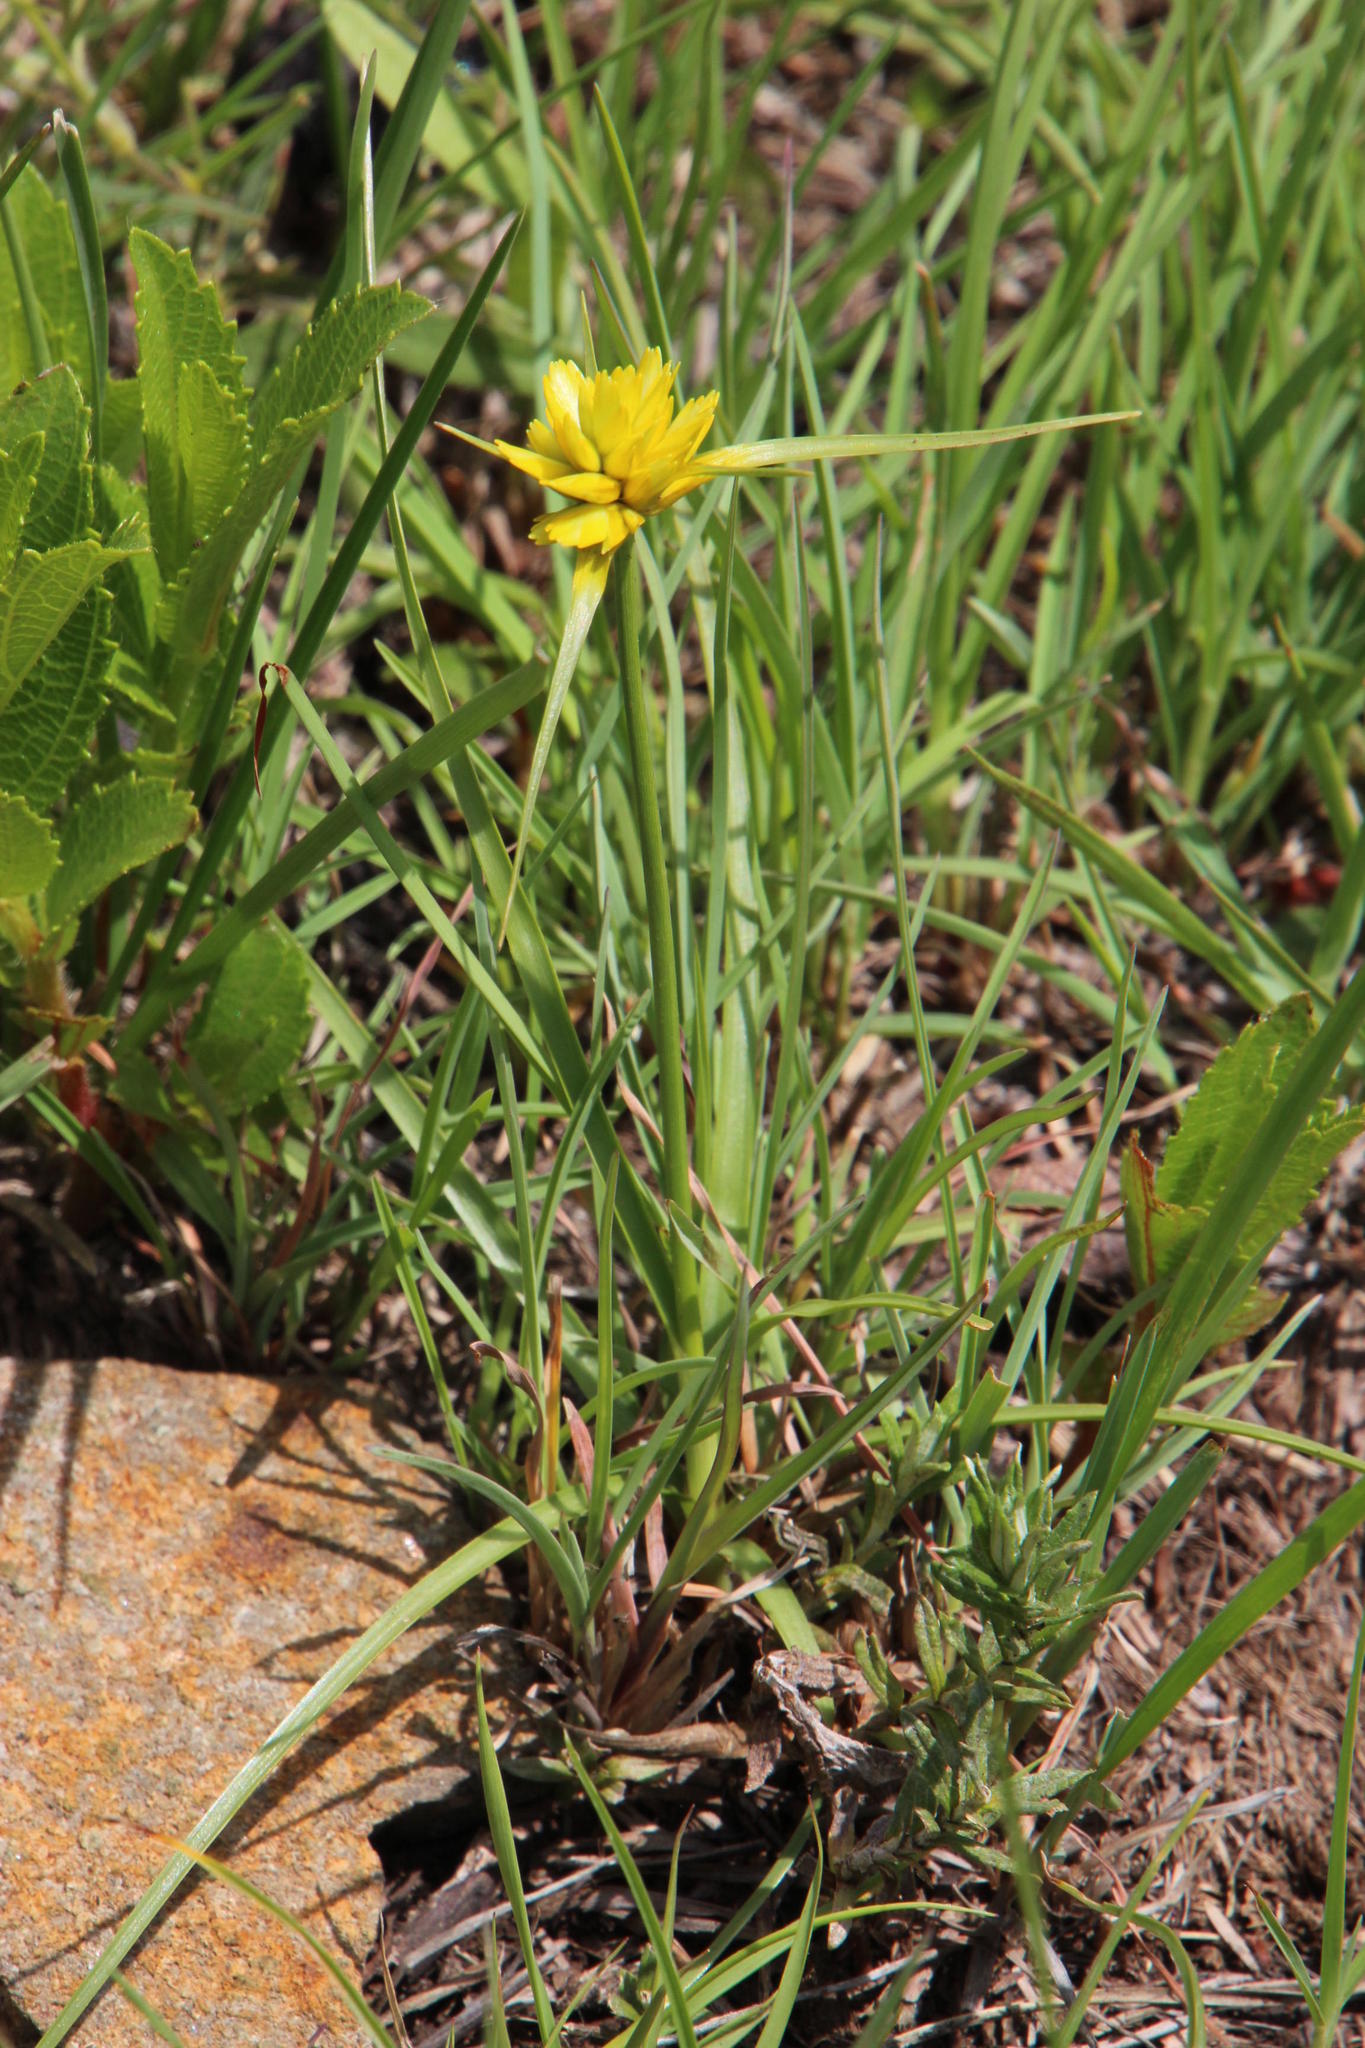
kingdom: Plantae
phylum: Tracheophyta
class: Liliopsida
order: Poales
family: Cyperaceae
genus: Cyperus
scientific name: Cyperus sphaerocephalus
